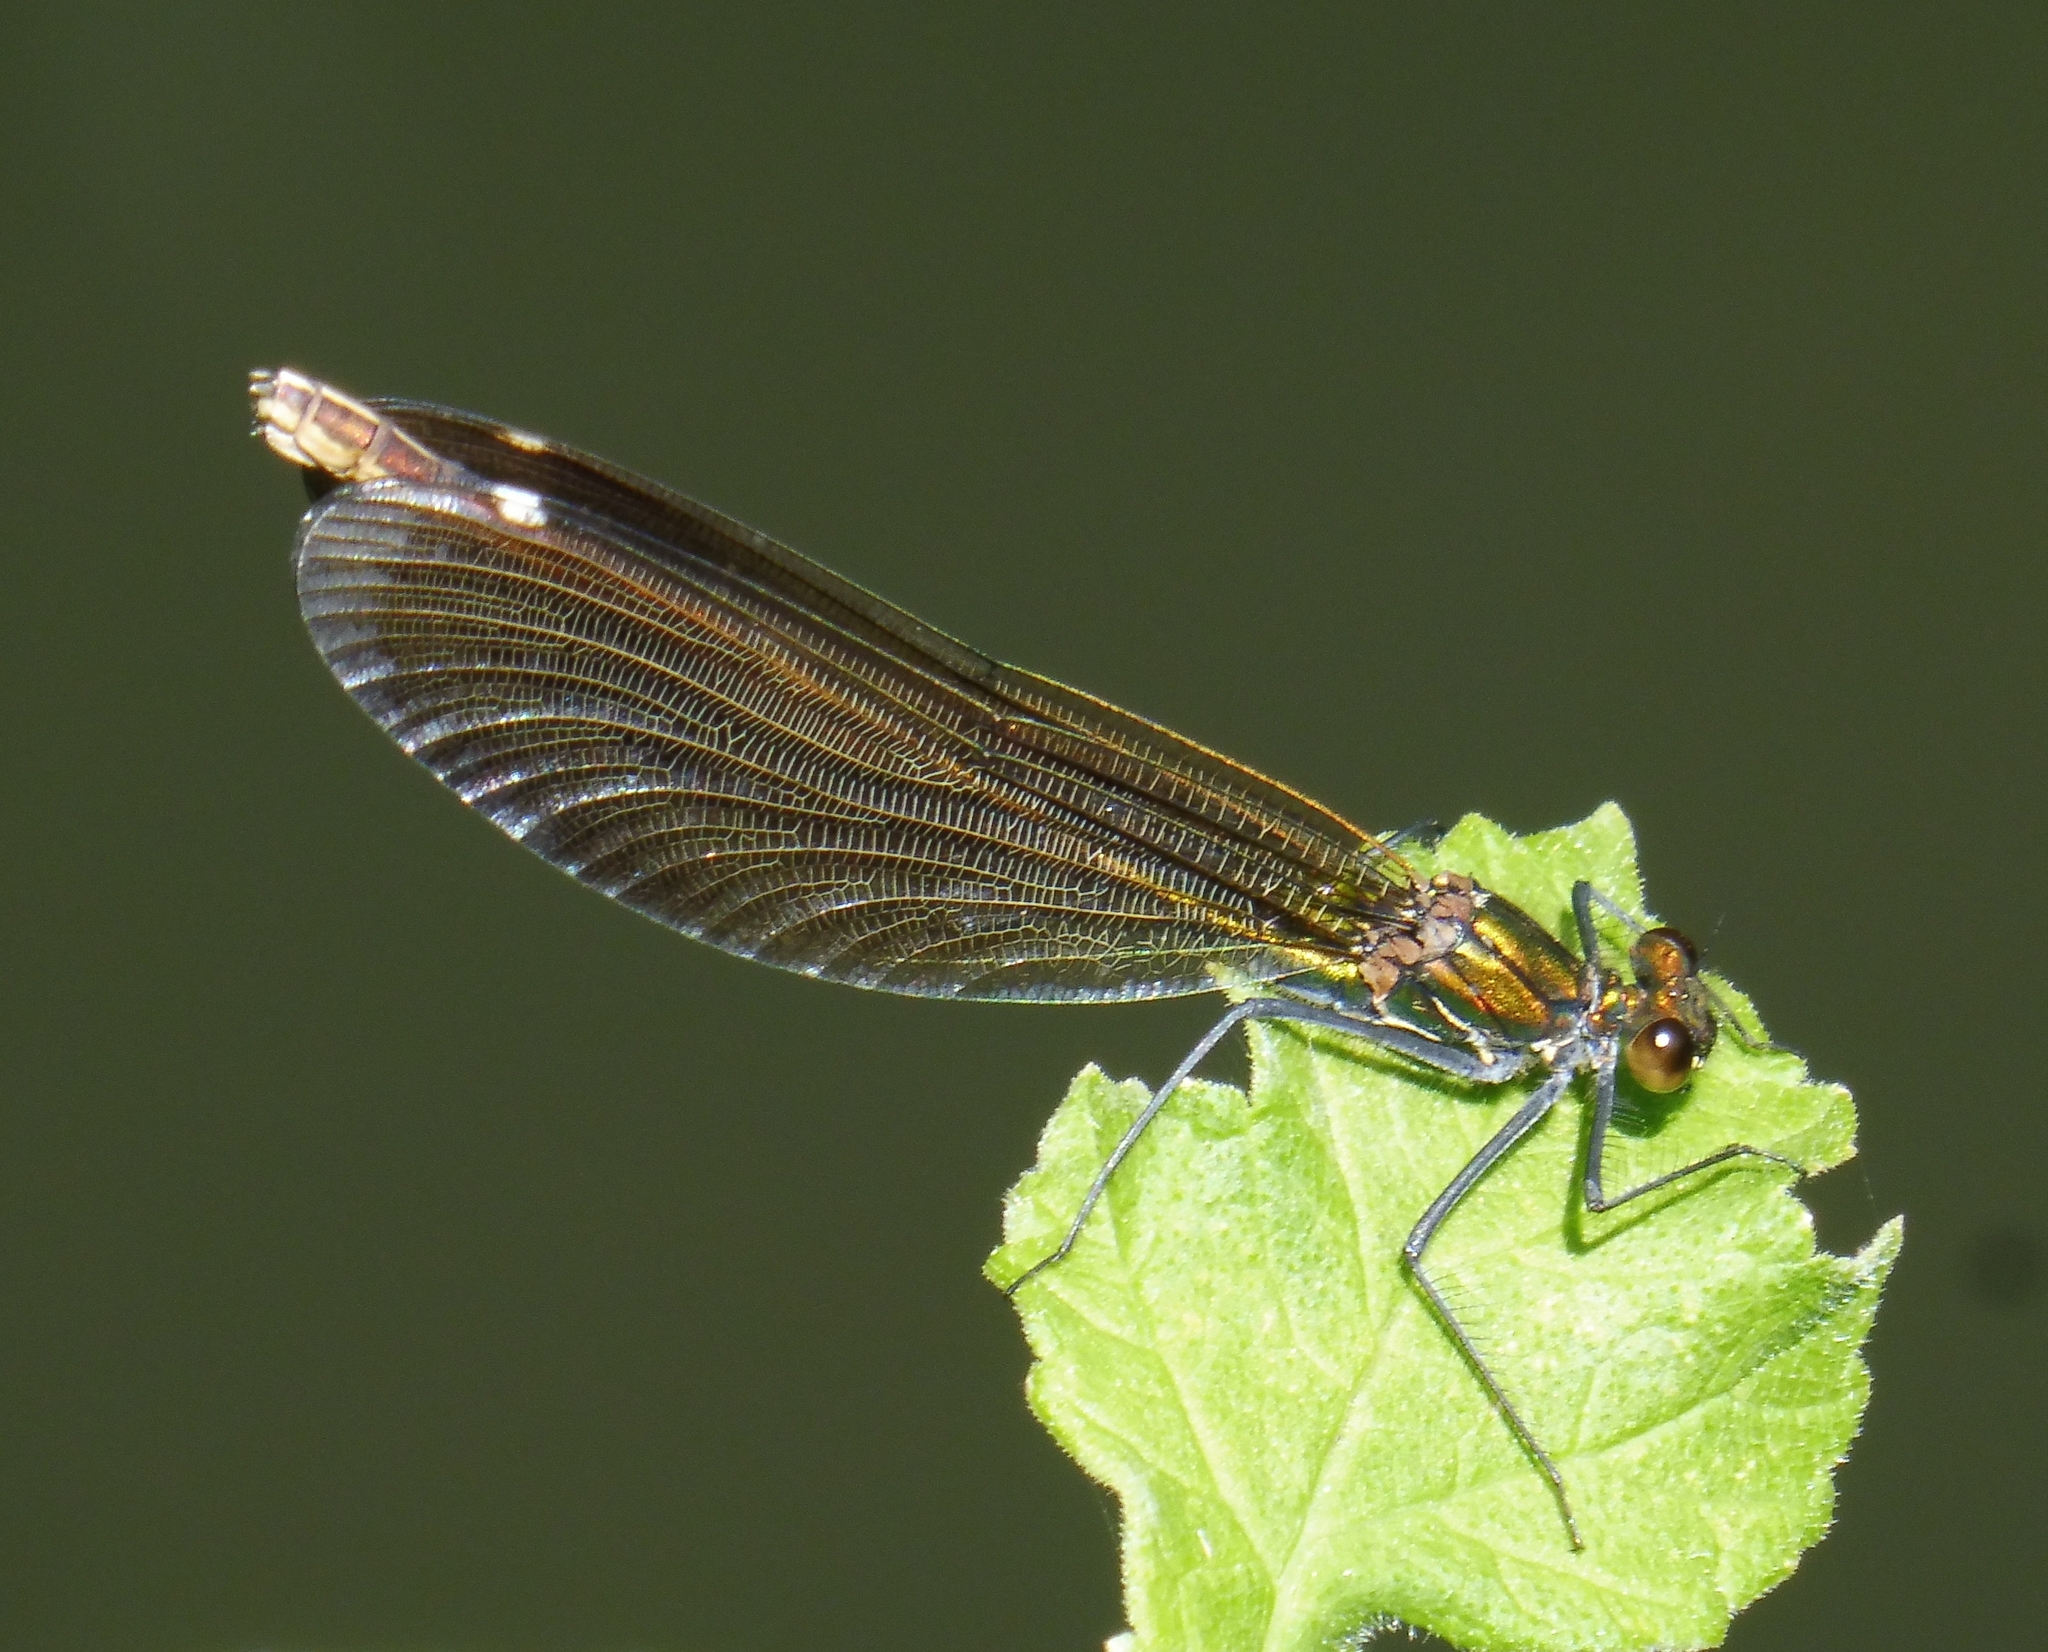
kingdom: Animalia
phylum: Arthropoda
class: Insecta
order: Odonata
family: Calopterygidae
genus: Calopteryx
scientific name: Calopteryx virgo
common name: Beautiful demoiselle
